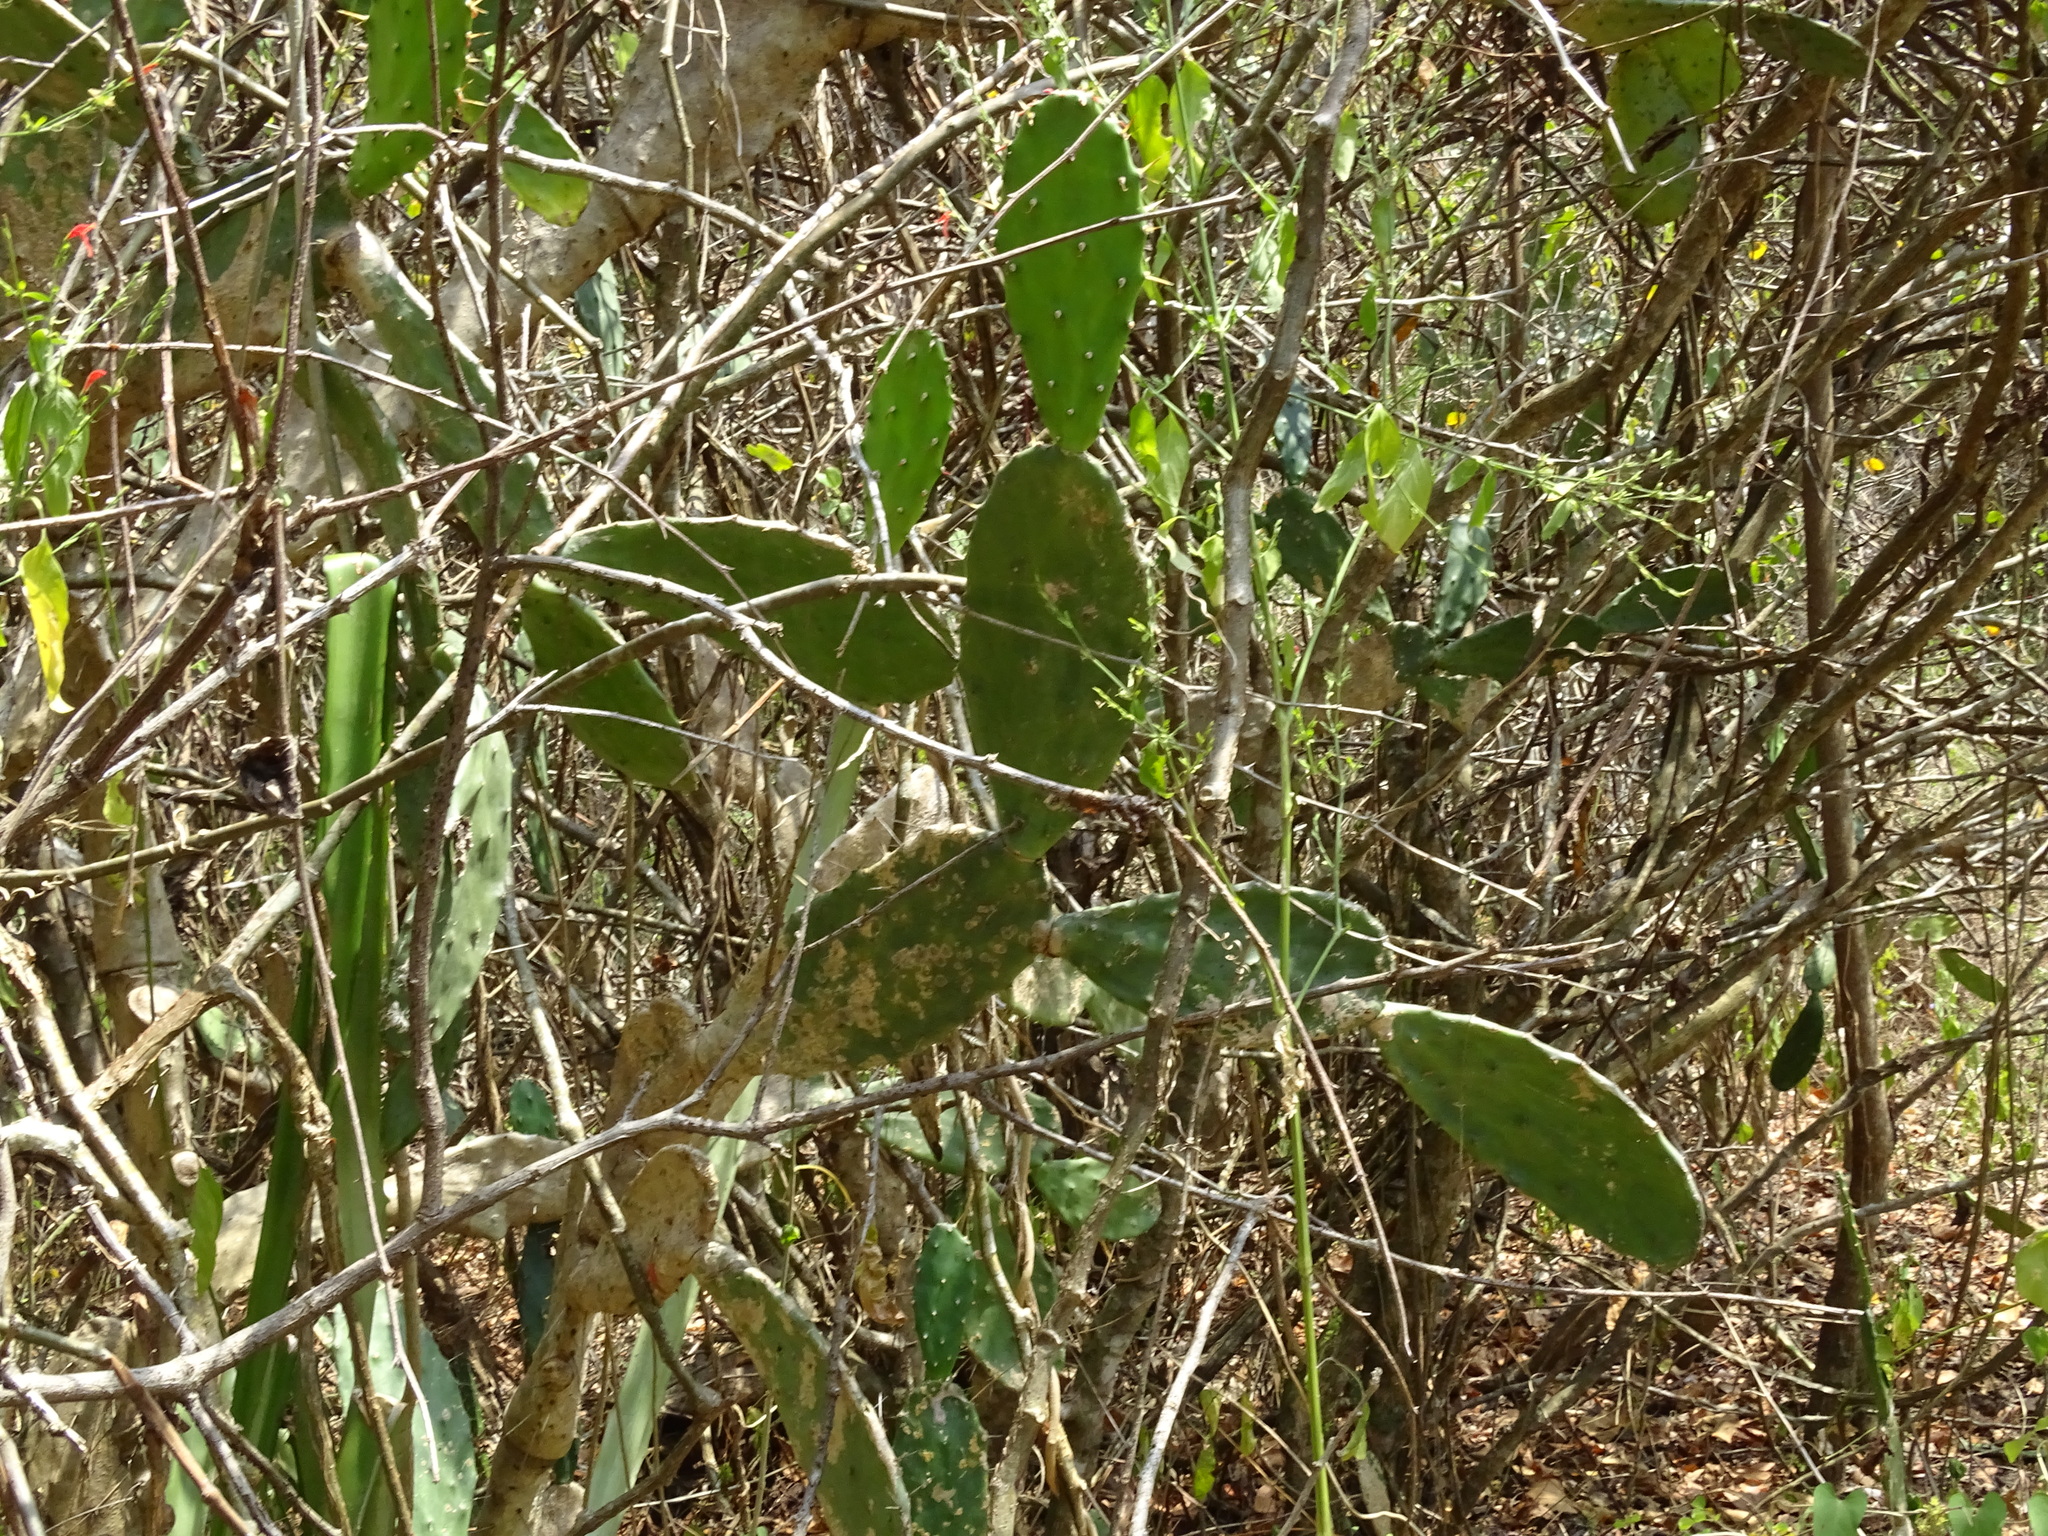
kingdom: Plantae
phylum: Tracheophyta
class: Magnoliopsida
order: Caryophyllales
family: Cactaceae
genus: Opuntia
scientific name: Opuntia inaperta
